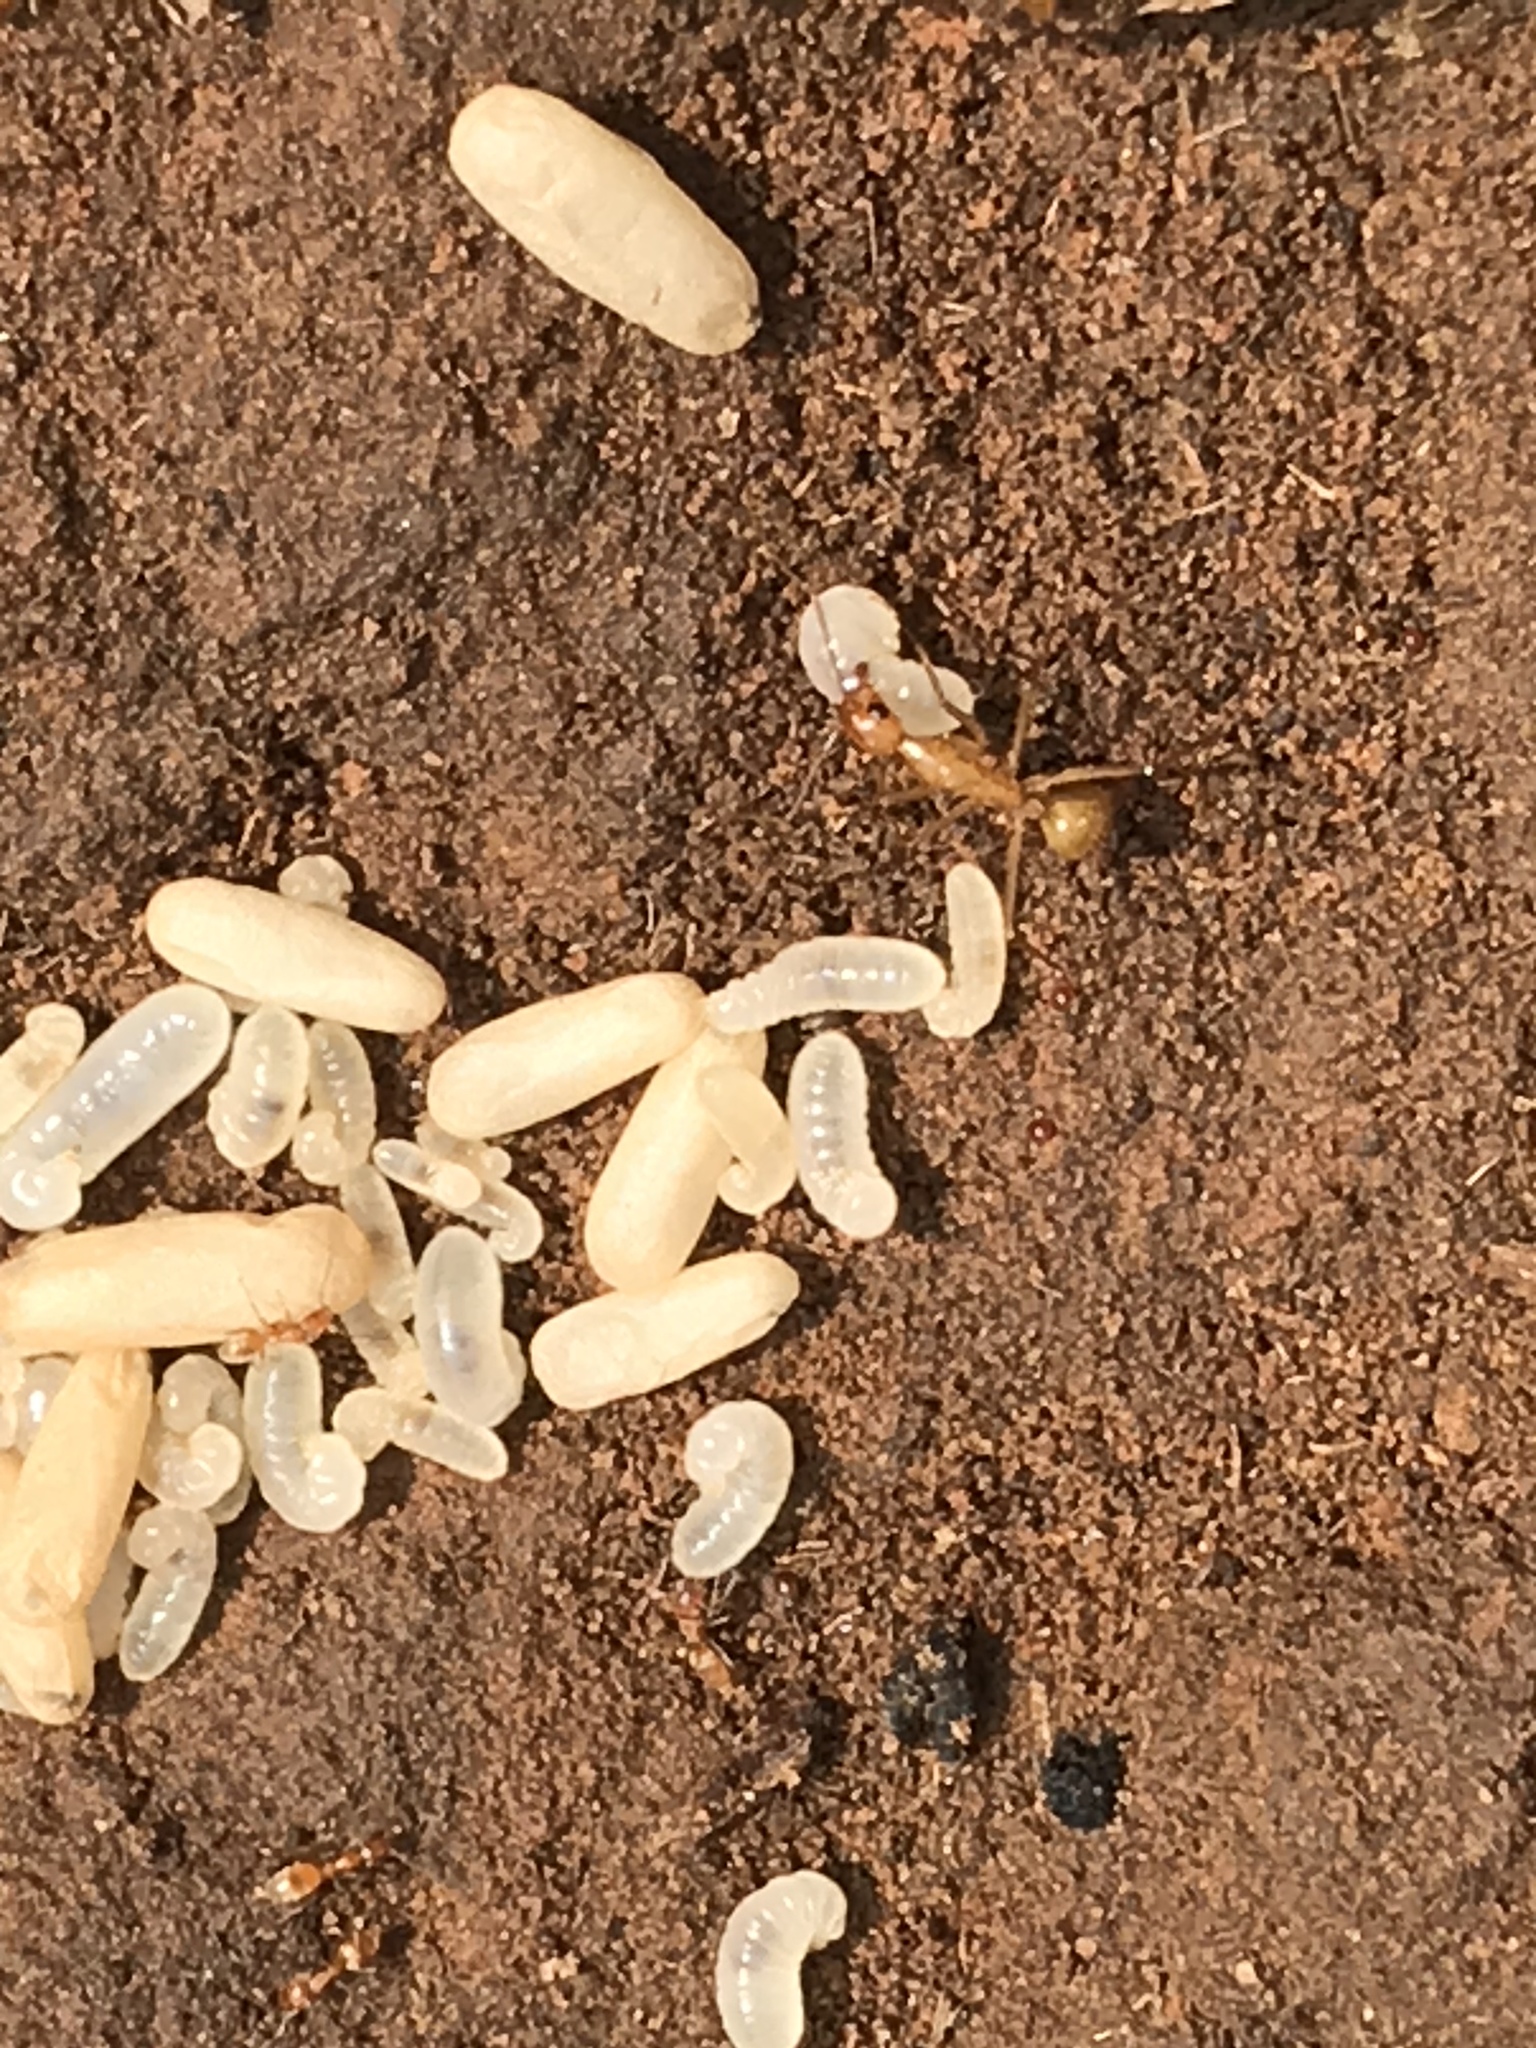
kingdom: Animalia
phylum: Arthropoda
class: Insecta
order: Hymenoptera
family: Formicidae
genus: Camponotus
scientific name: Camponotus festinatus
